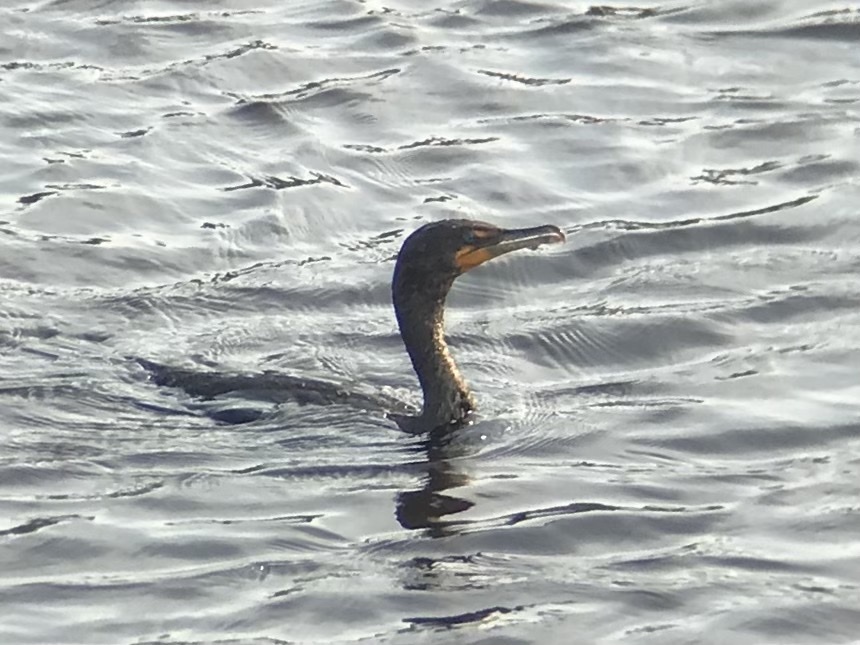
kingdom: Animalia
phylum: Chordata
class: Aves
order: Suliformes
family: Phalacrocoracidae
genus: Phalacrocorax
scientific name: Phalacrocorax auritus
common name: Double-crested cormorant
